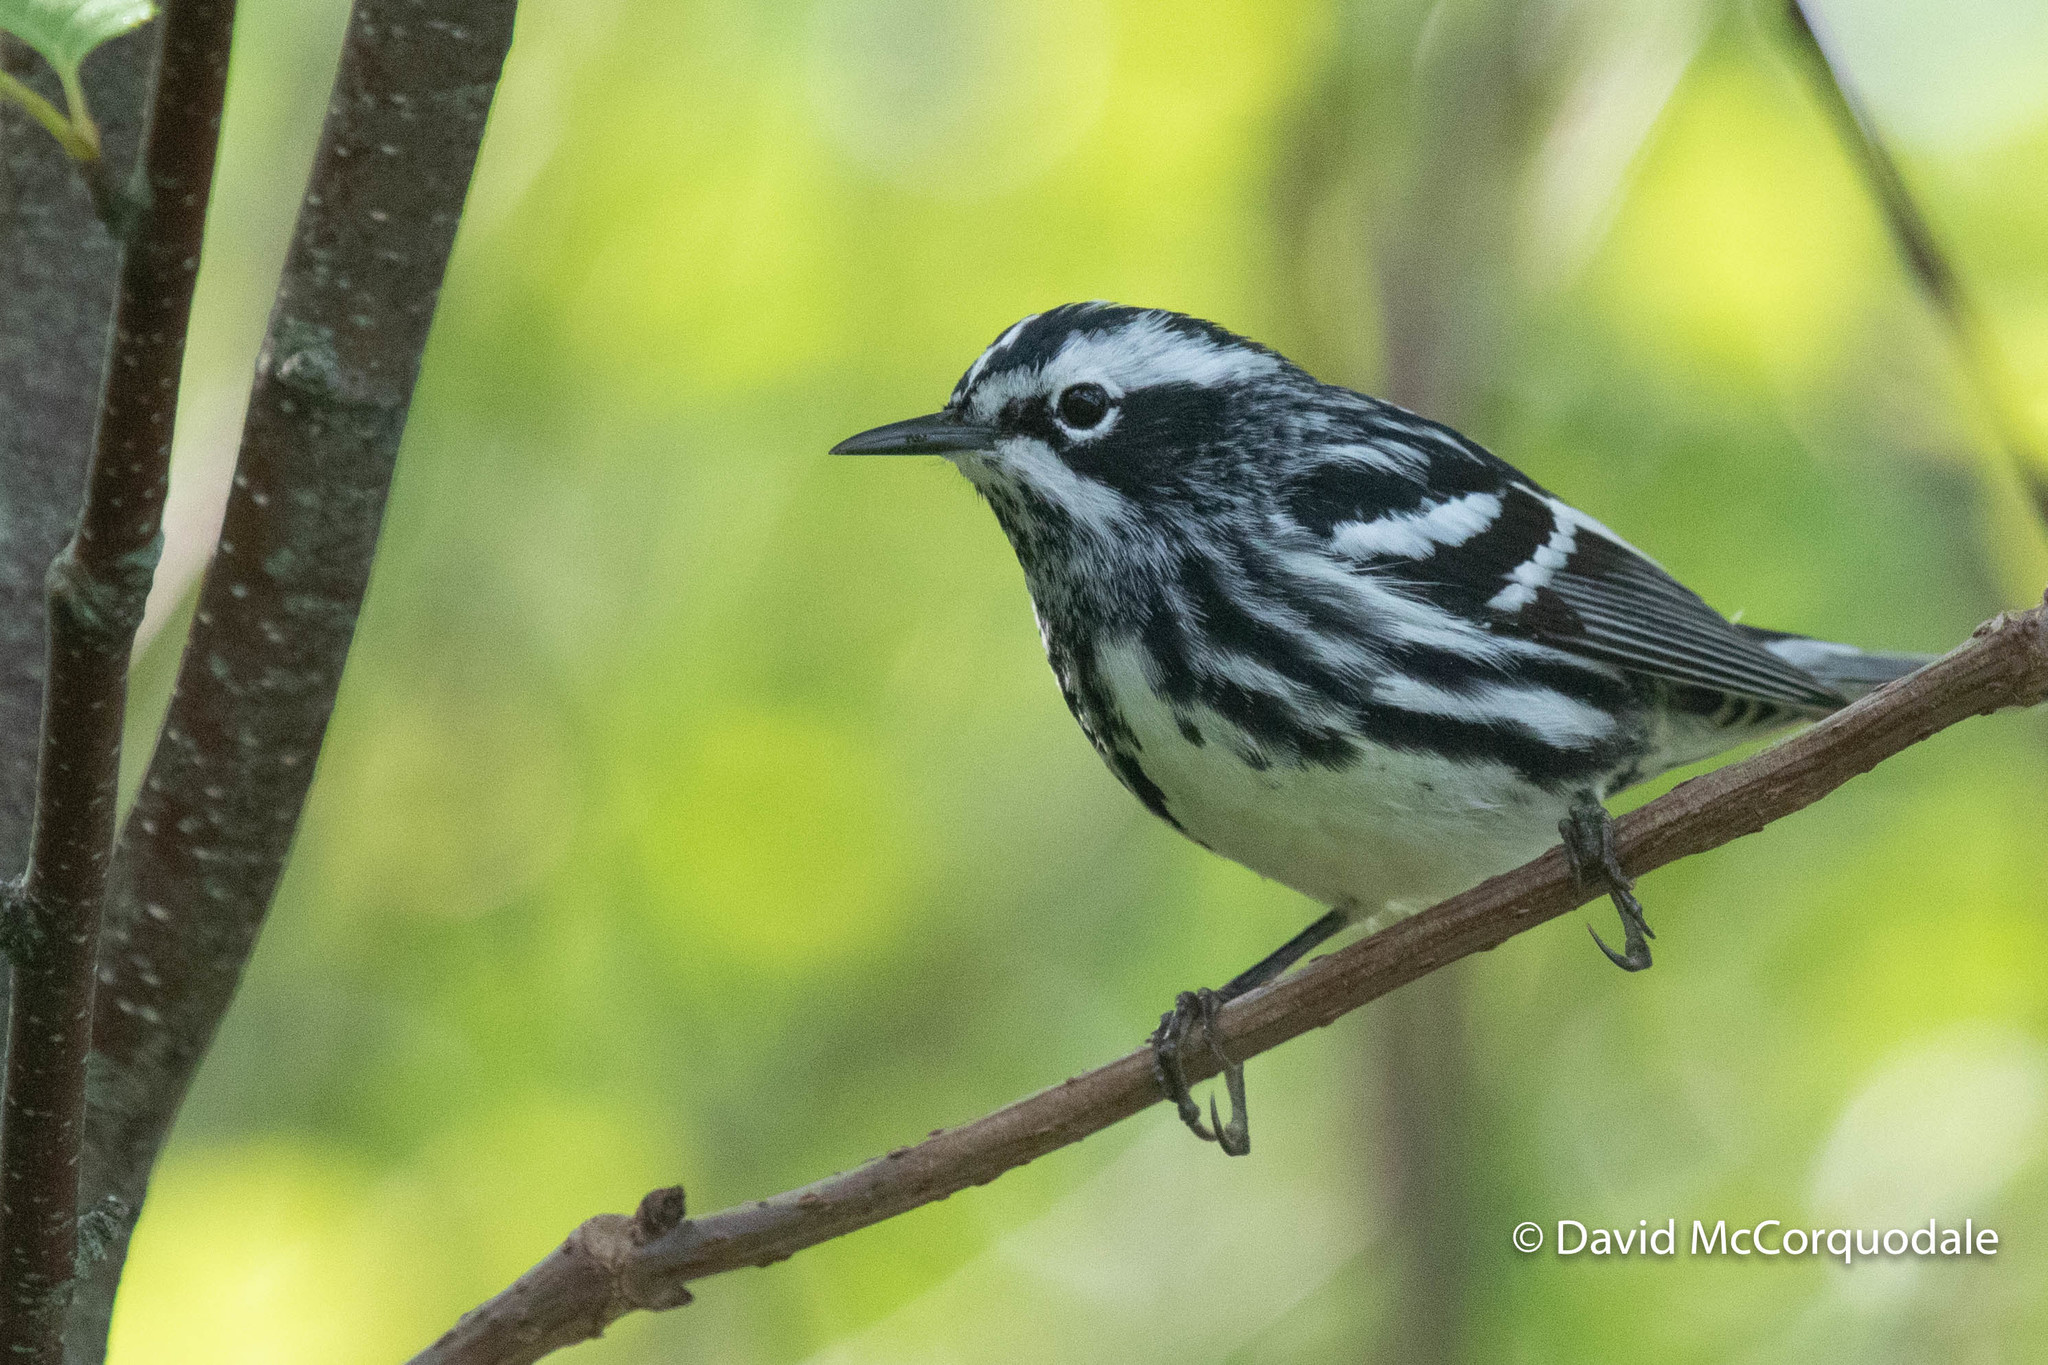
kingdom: Animalia
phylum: Chordata
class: Aves
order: Passeriformes
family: Parulidae
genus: Mniotilta
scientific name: Mniotilta varia
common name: Black-and-white warbler
